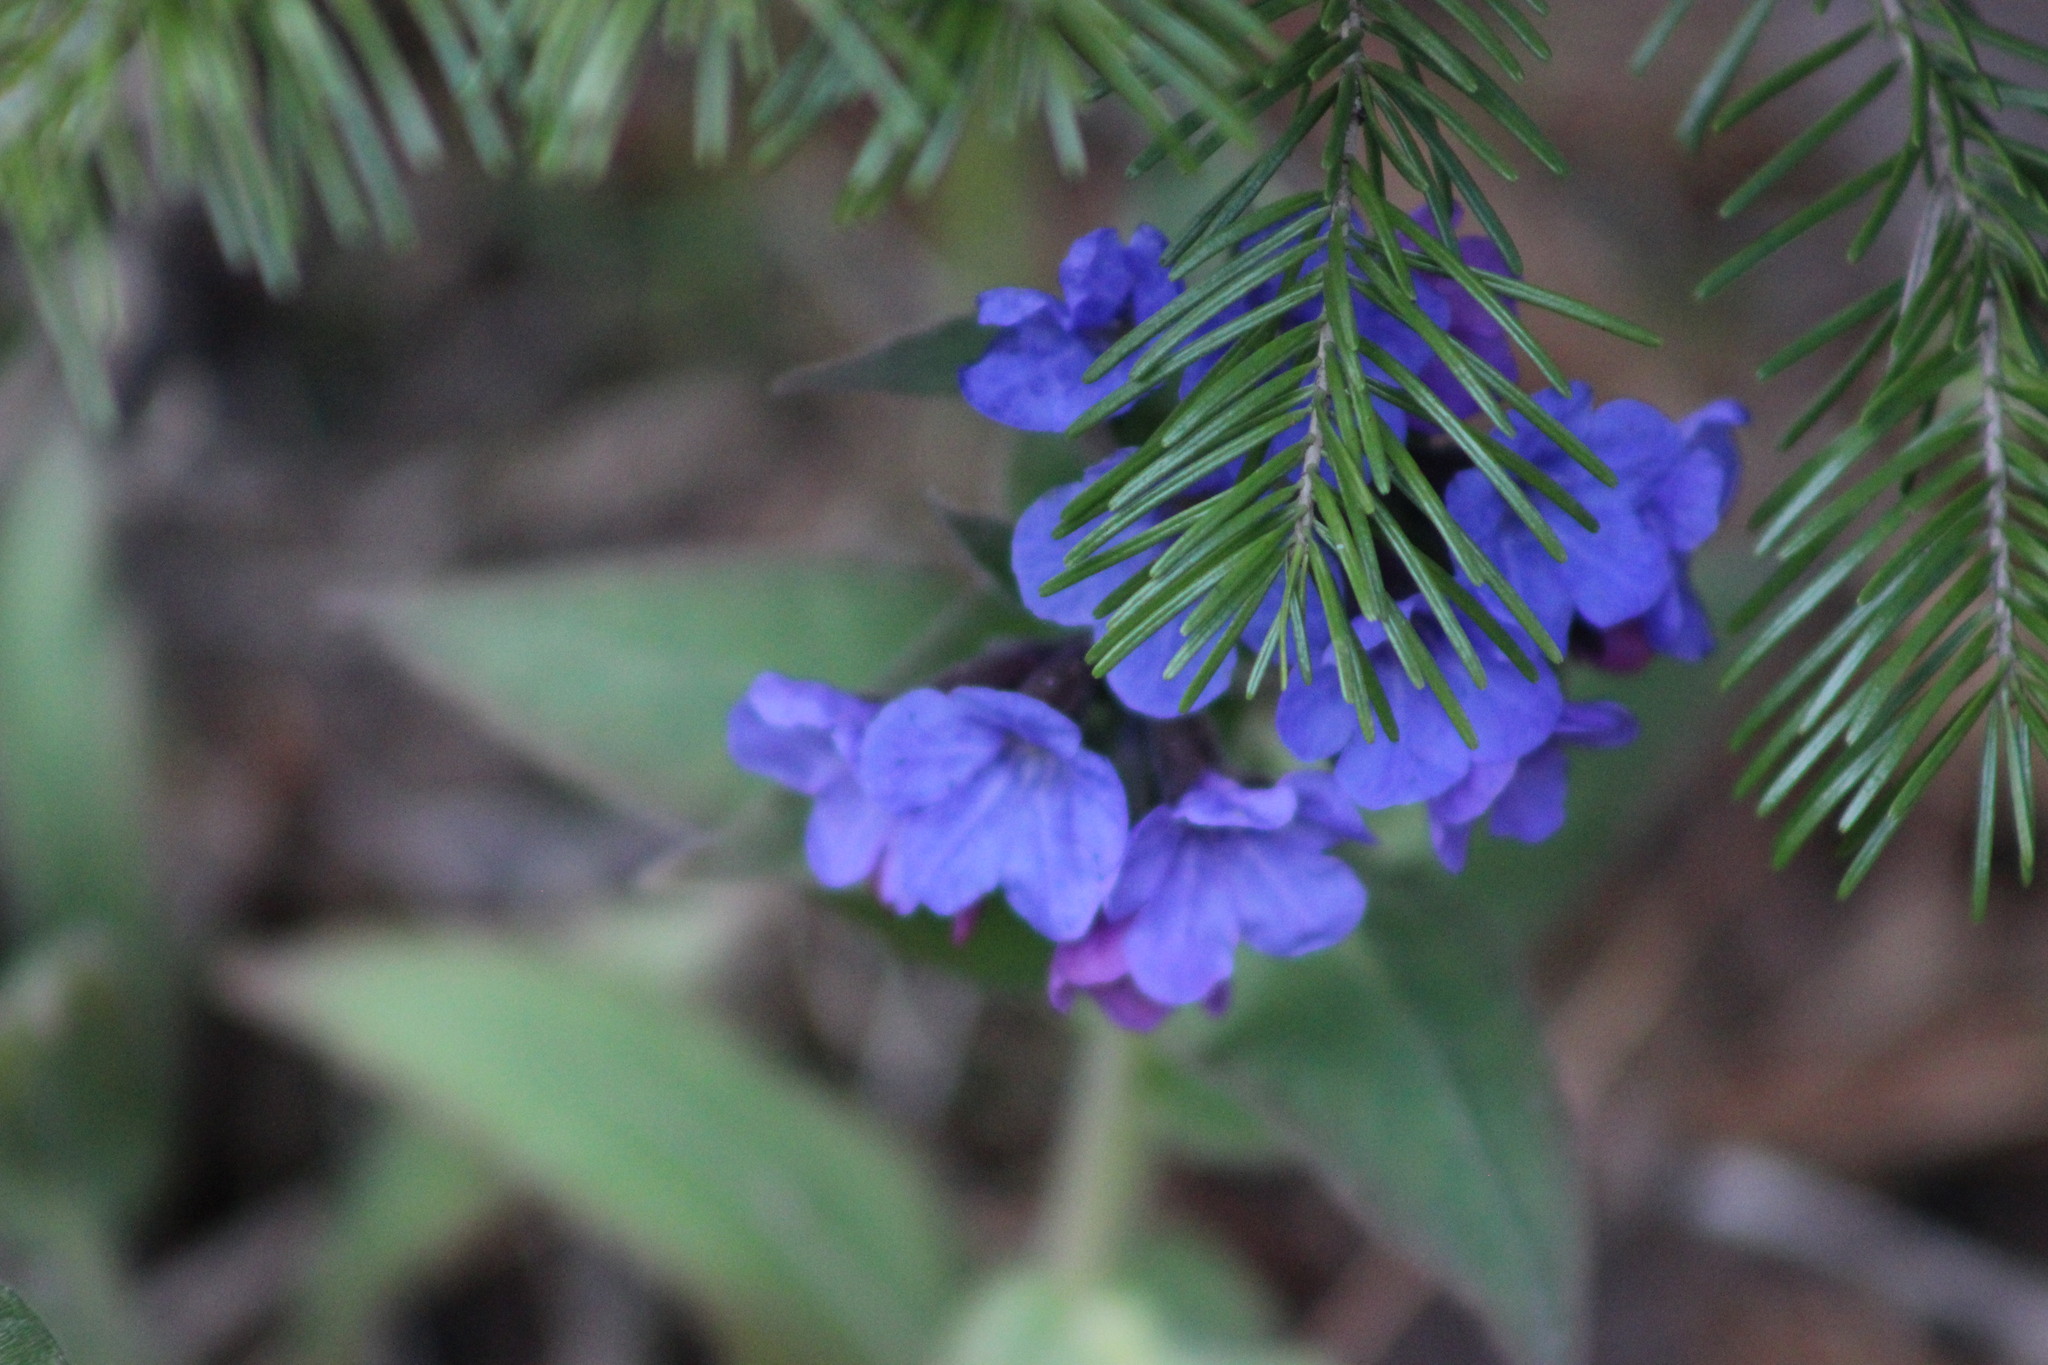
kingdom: Plantae
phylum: Tracheophyta
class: Magnoliopsida
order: Boraginales
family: Boraginaceae
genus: Pulmonaria
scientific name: Pulmonaria mollis
